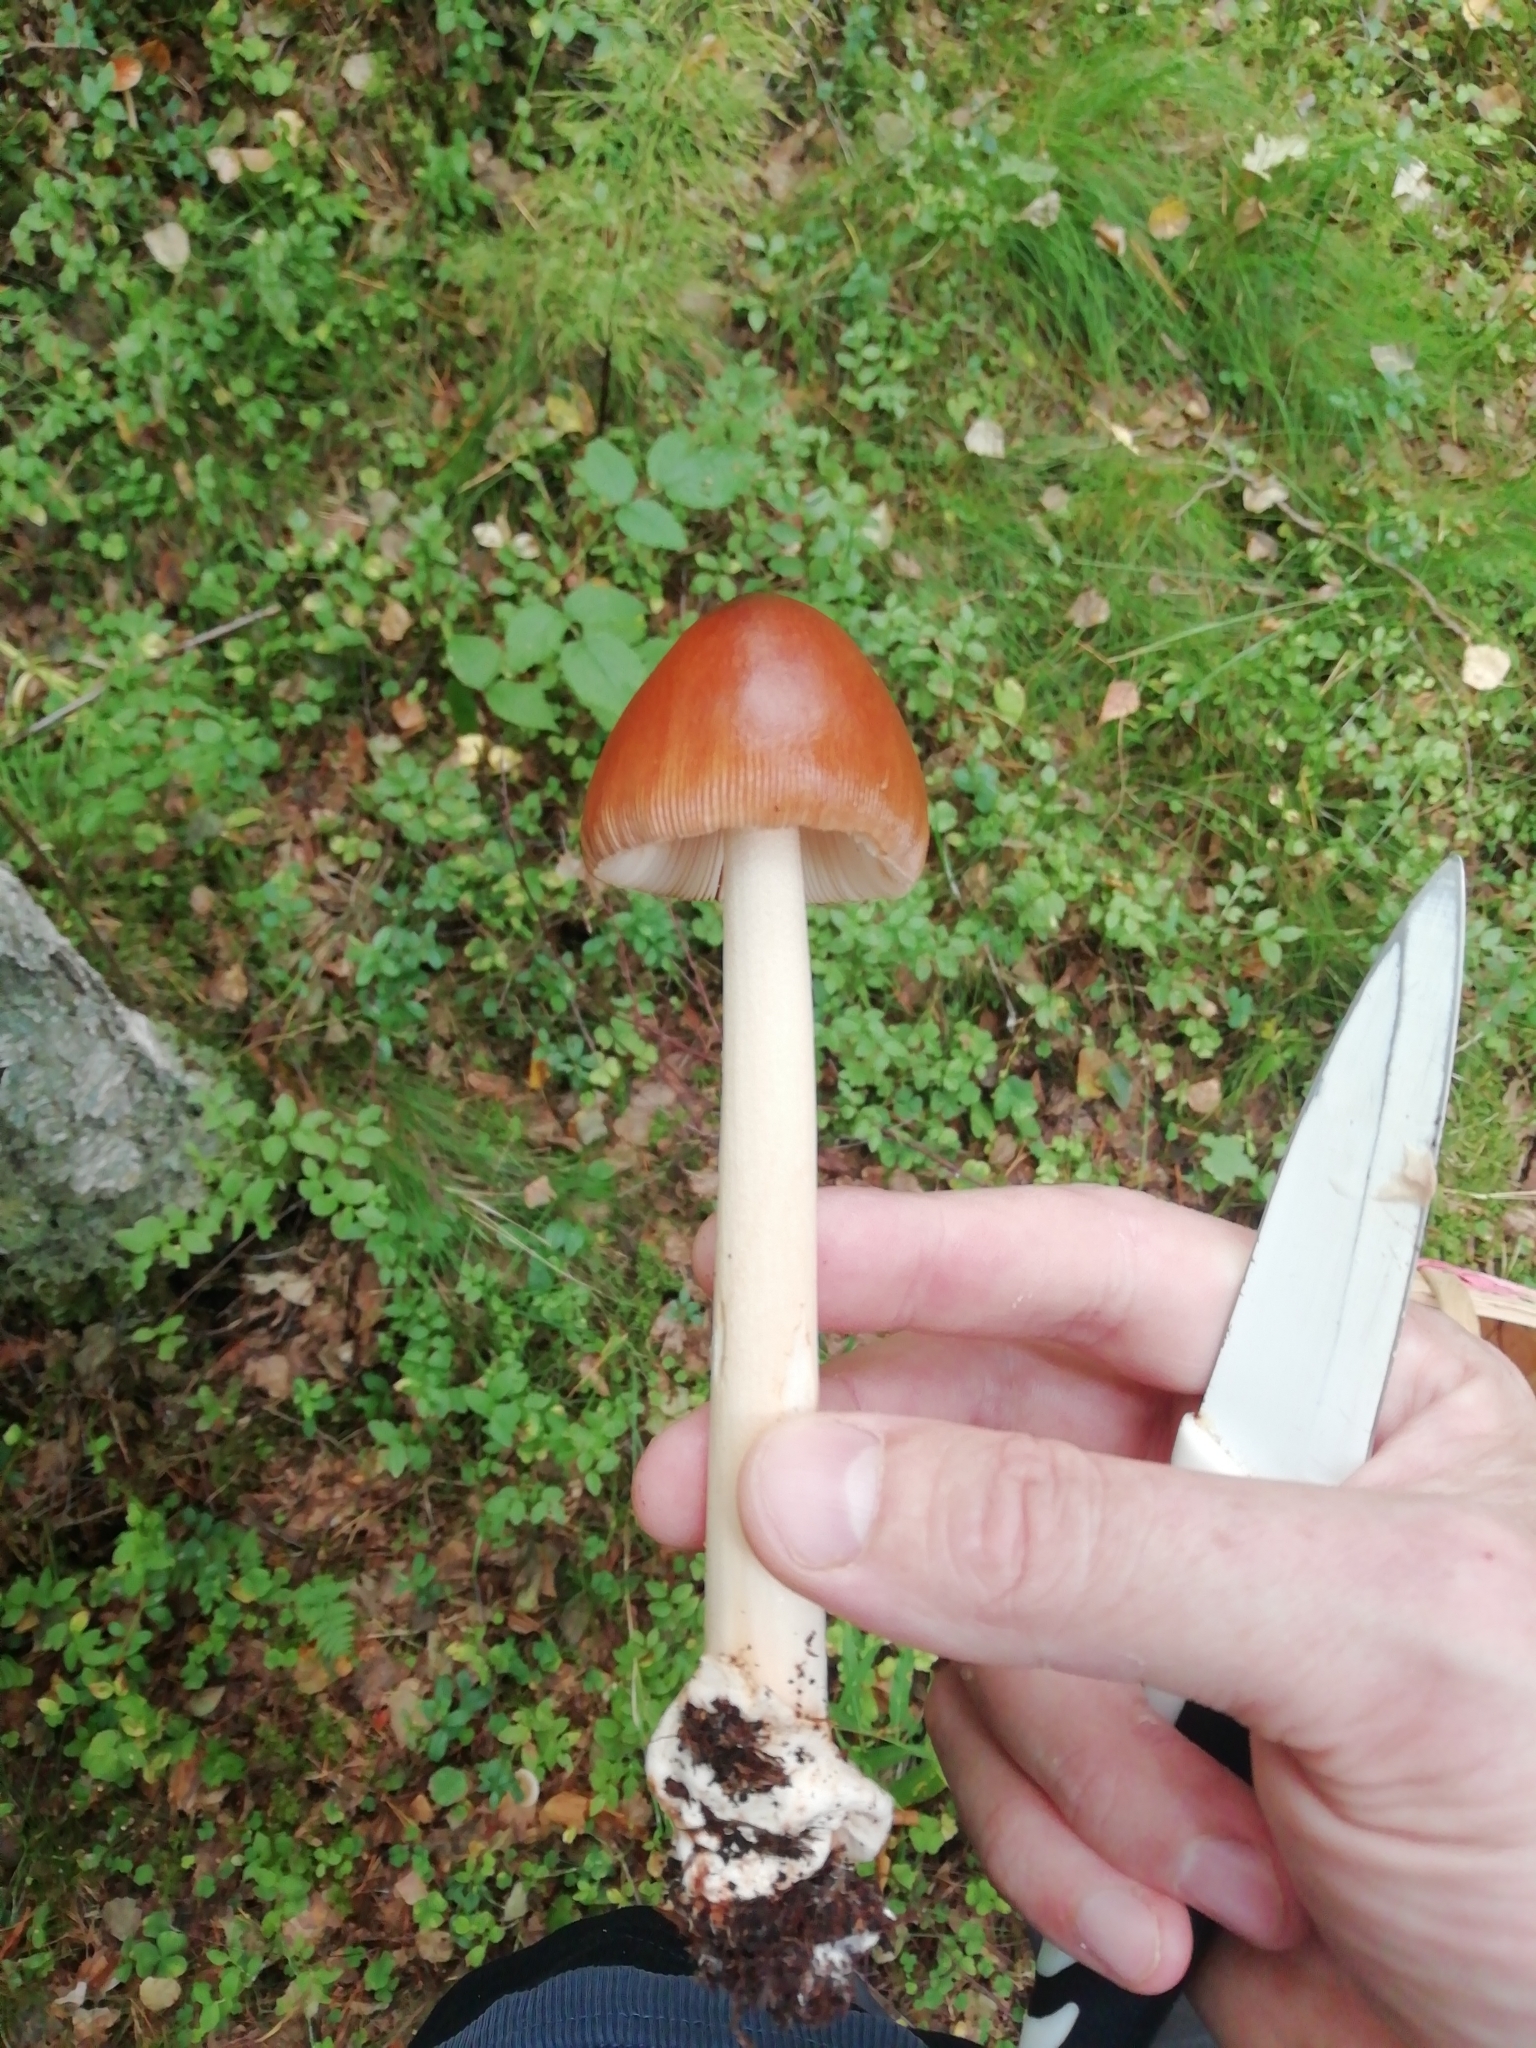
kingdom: Fungi
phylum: Basidiomycota
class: Agaricomycetes
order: Agaricales
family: Amanitaceae
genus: Amanita
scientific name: Amanita fulva
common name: Tawny grisette
